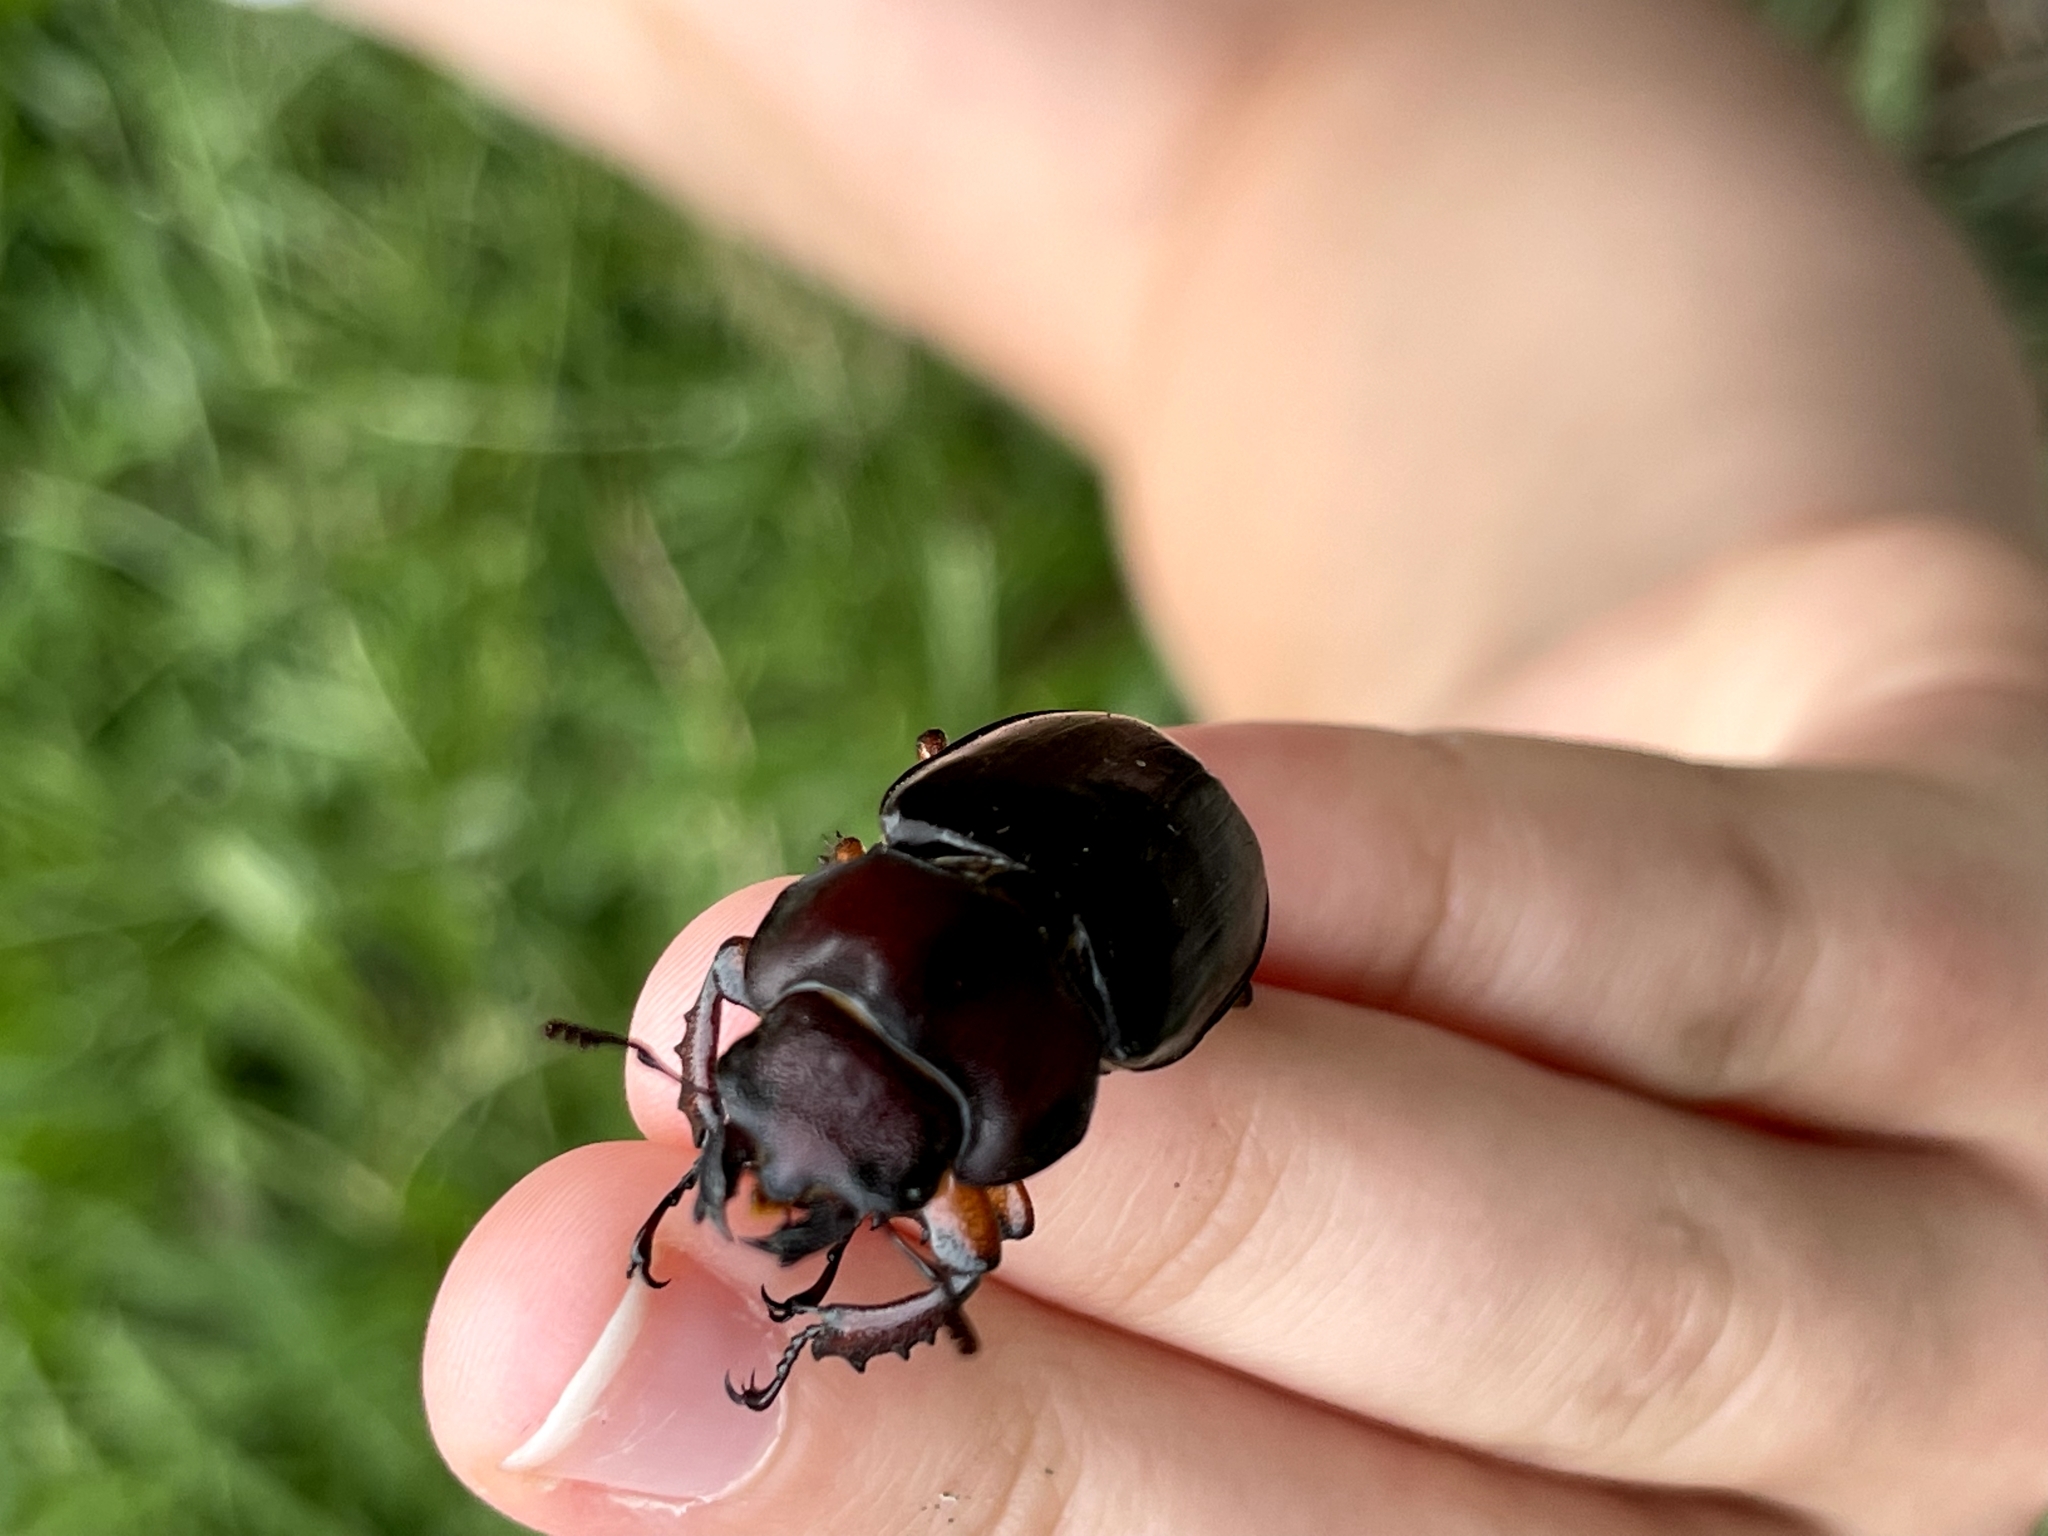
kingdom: Animalia
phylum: Arthropoda
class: Insecta
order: Coleoptera
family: Lucanidae
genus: Lucanus
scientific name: Lucanus capreolus
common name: Stag beetle
